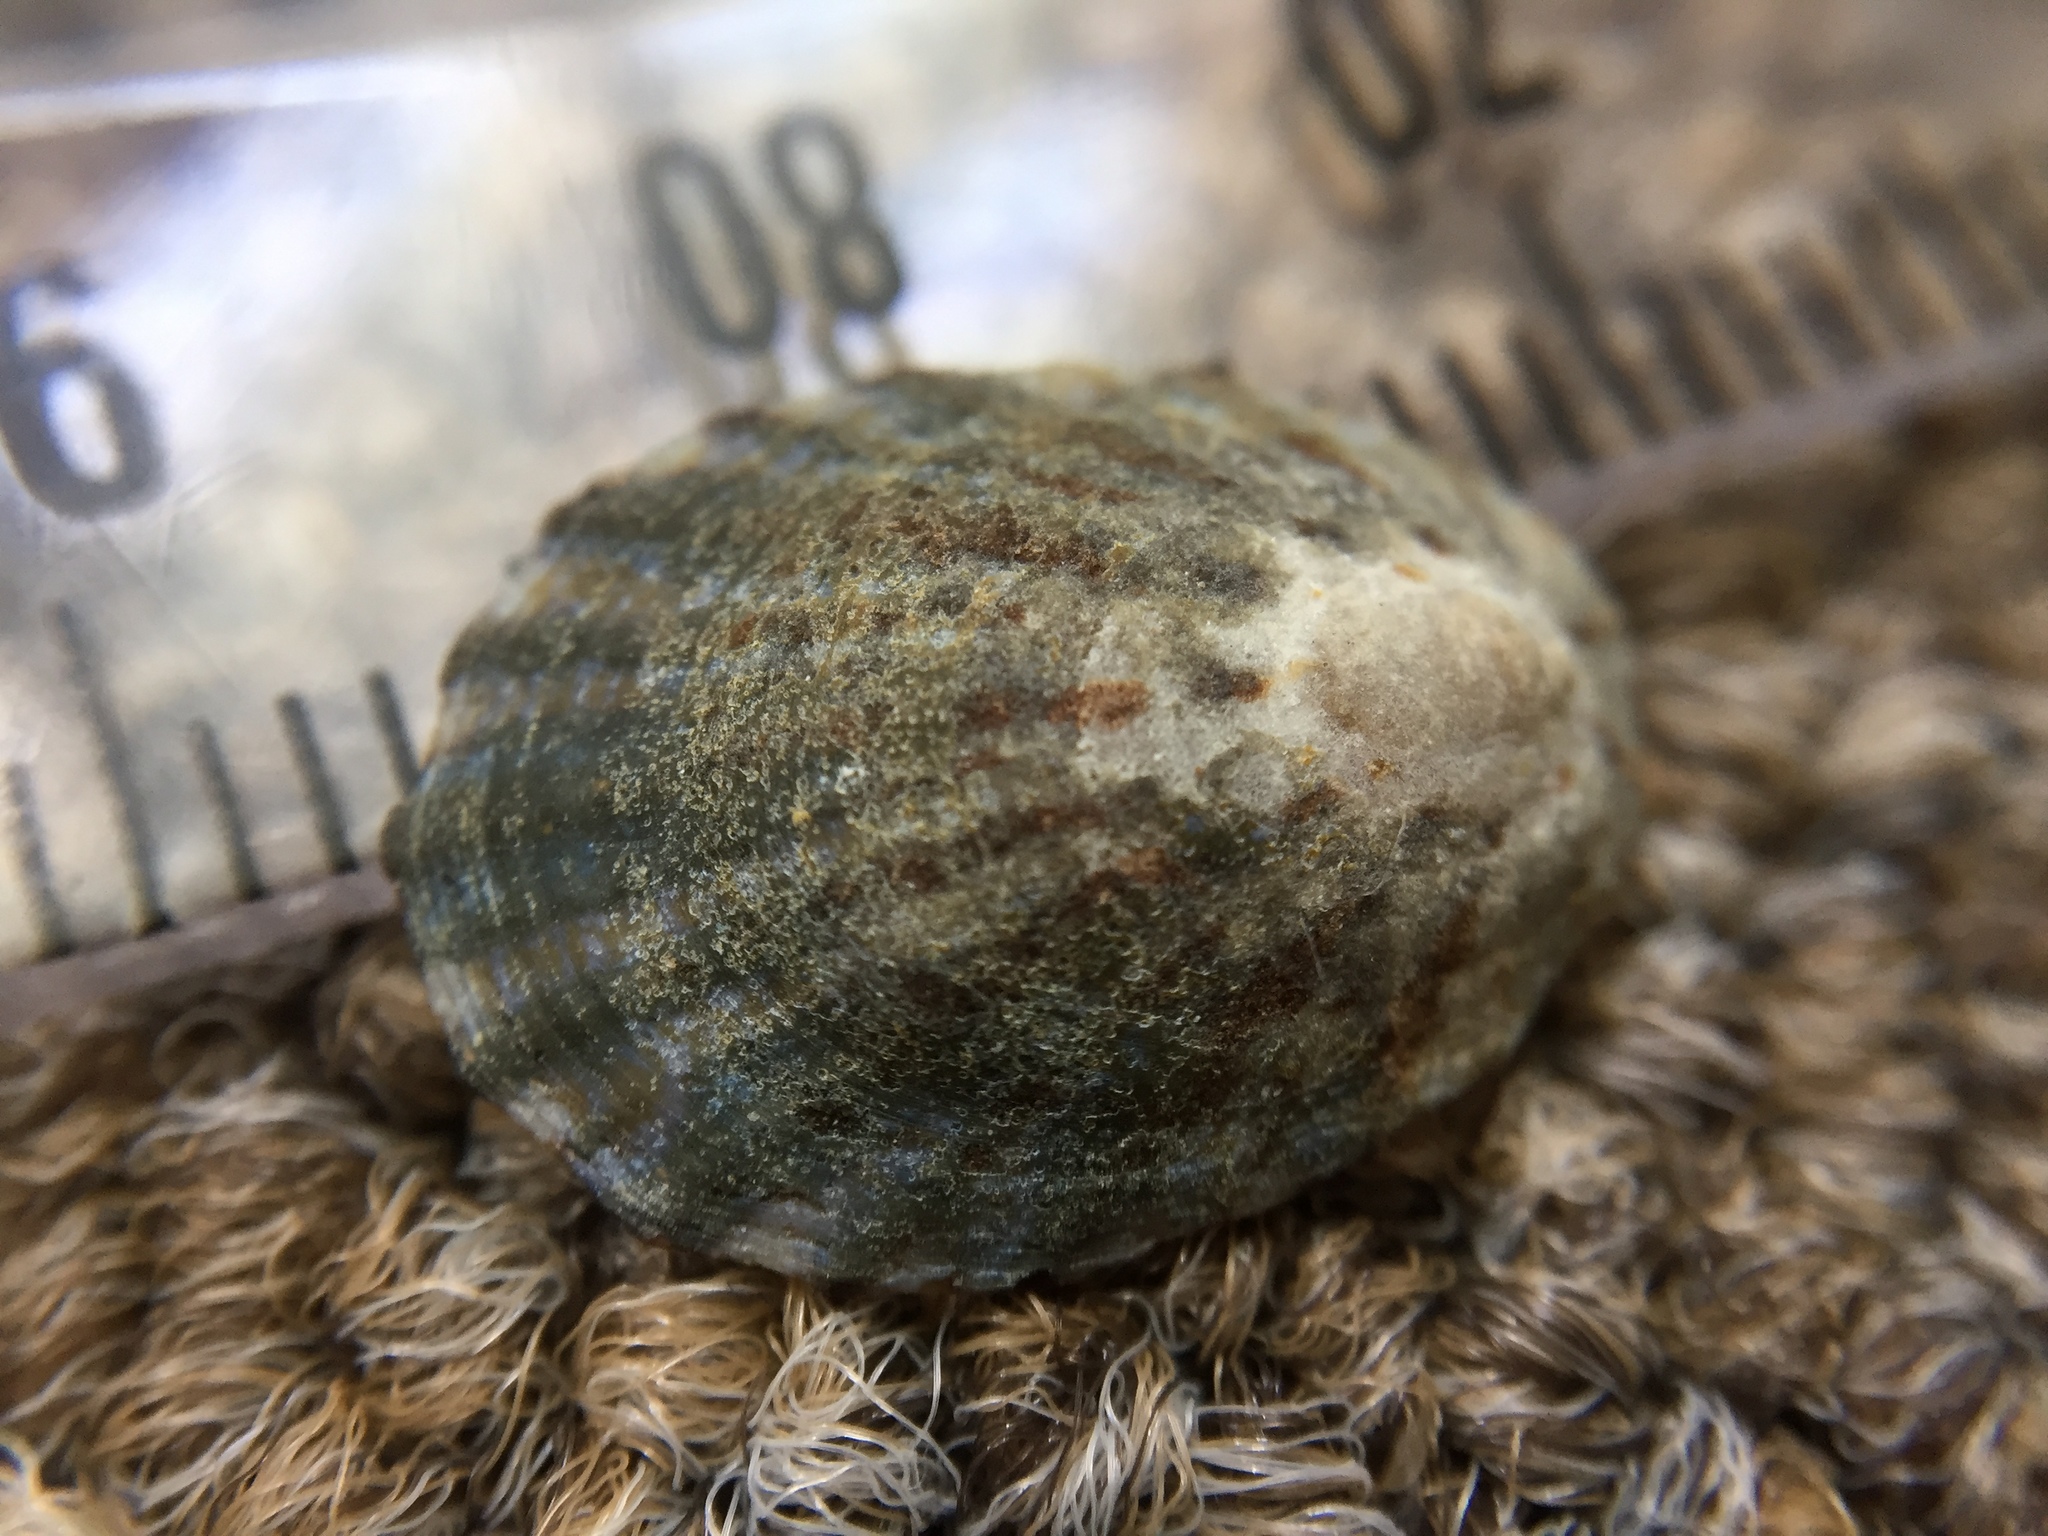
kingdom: Animalia
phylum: Mollusca
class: Gastropoda
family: Nacellidae
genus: Cellana
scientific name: Cellana radians
